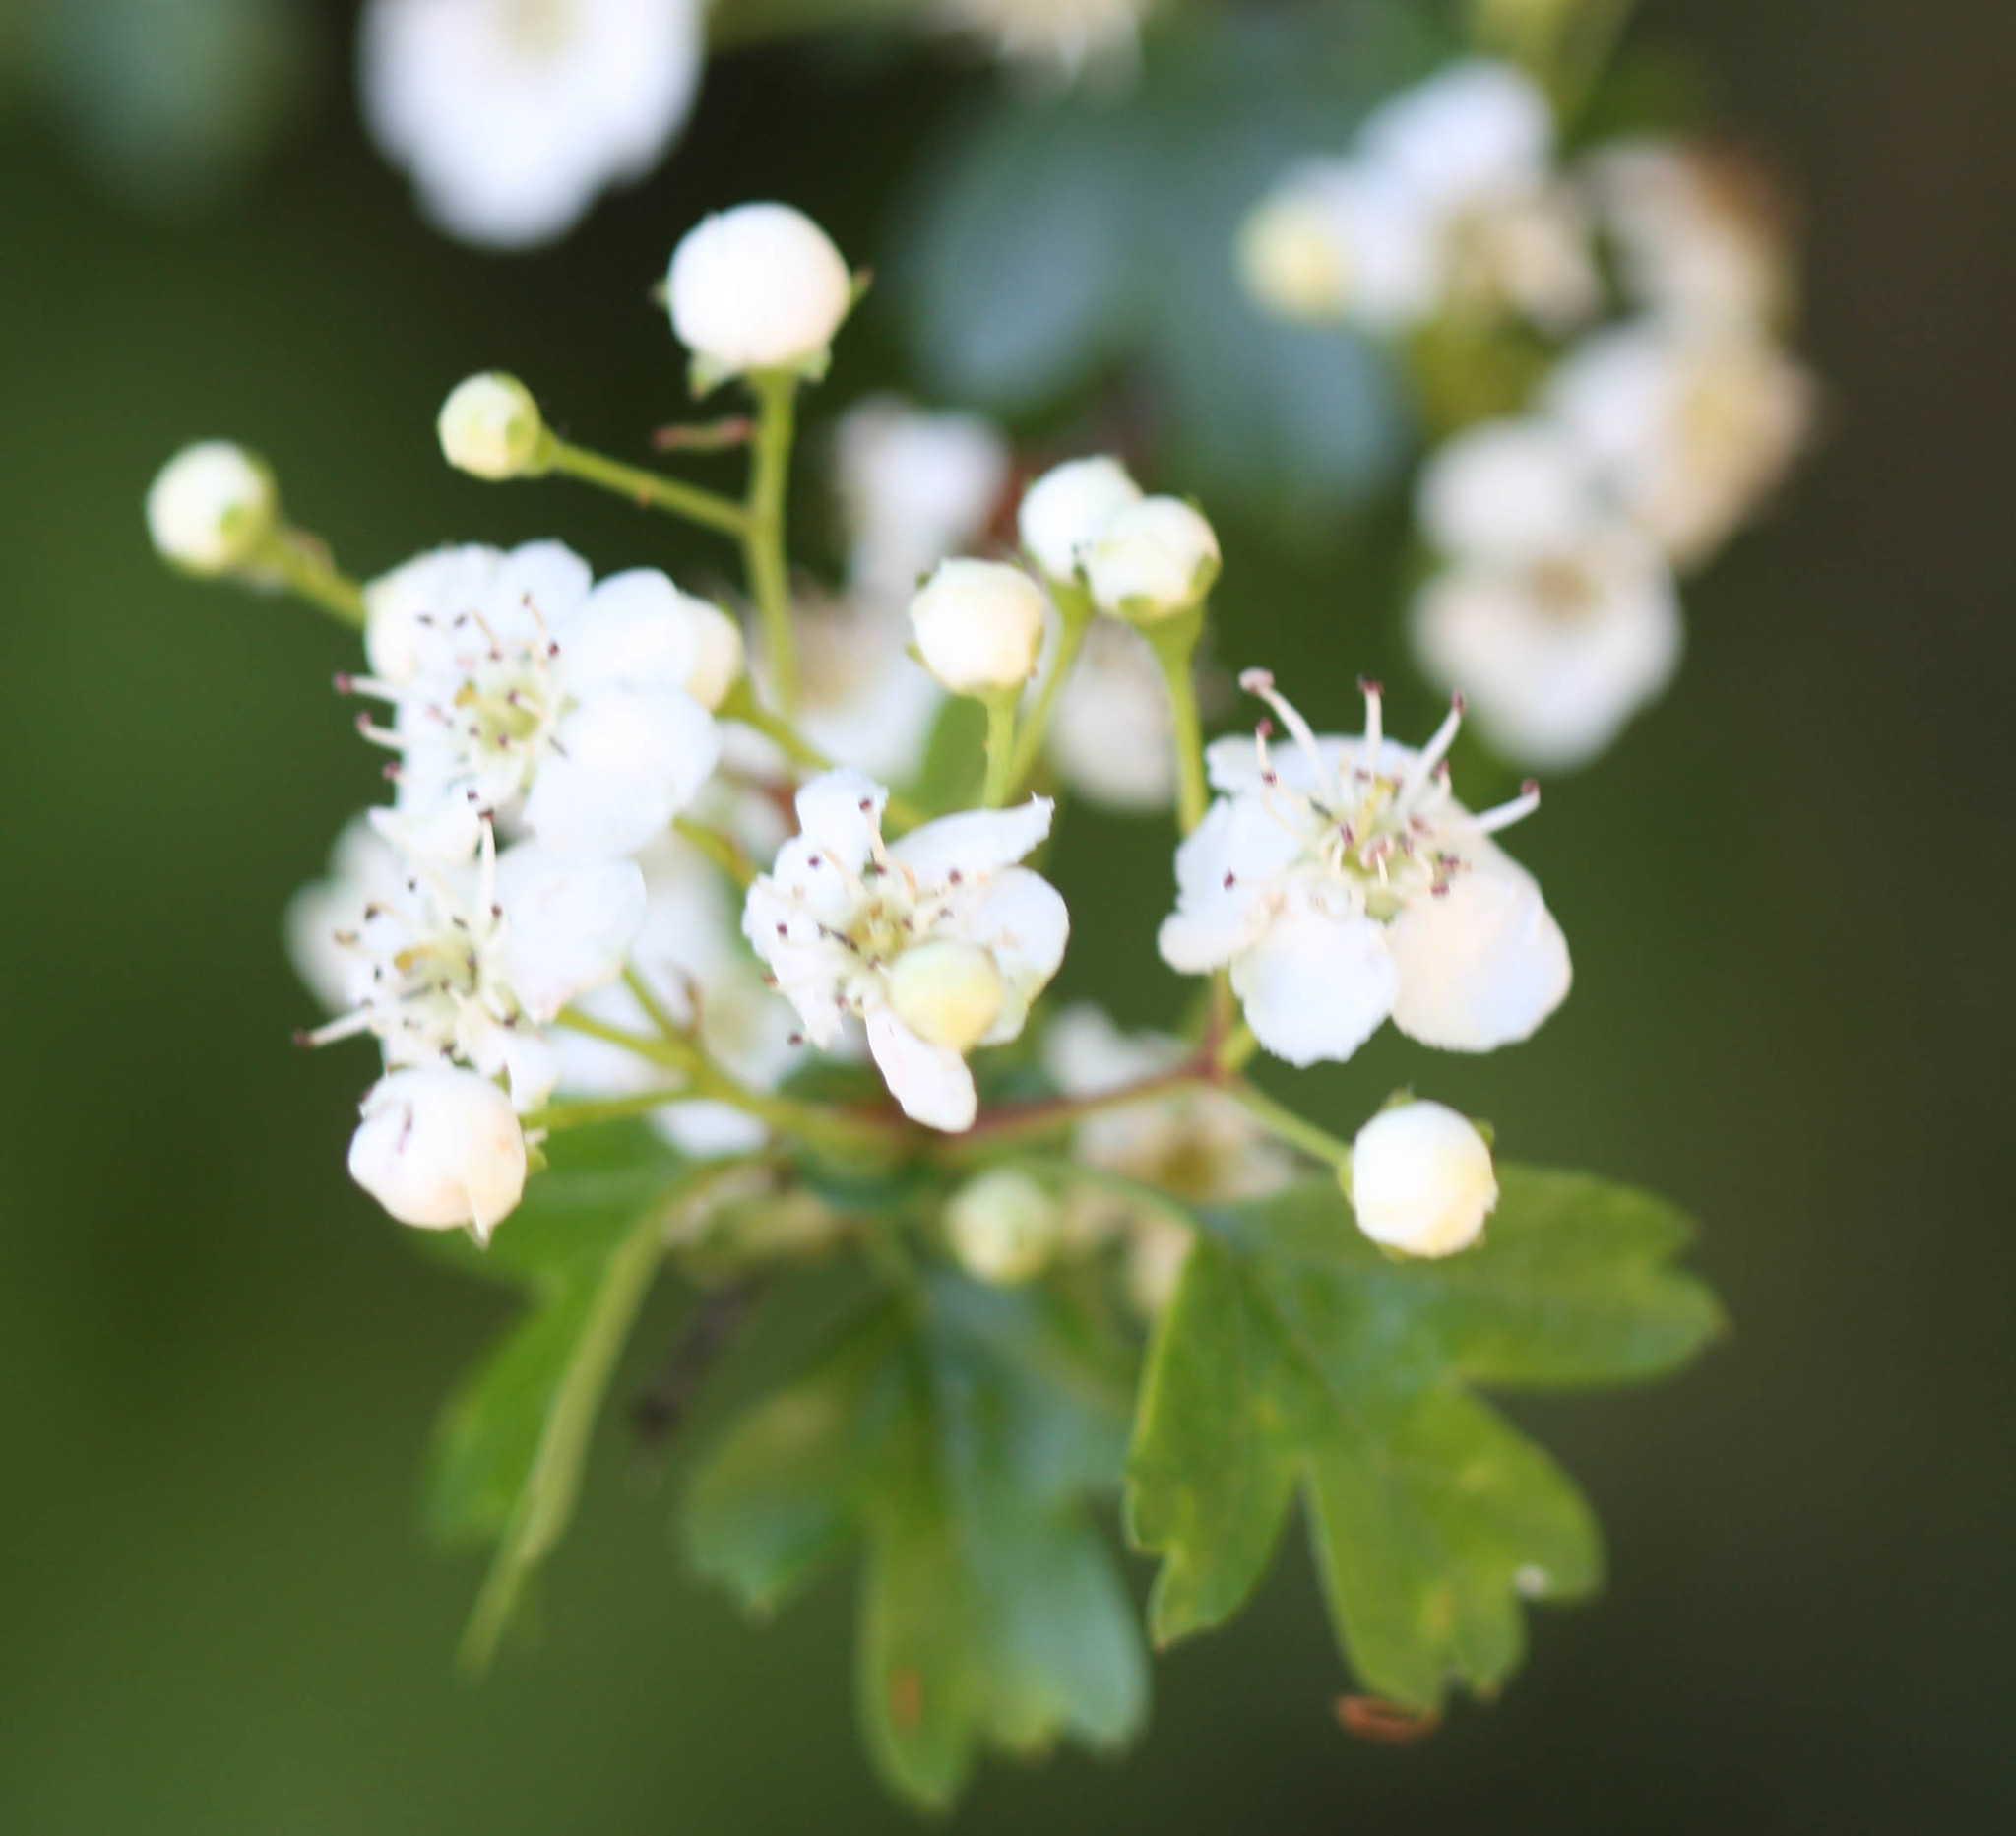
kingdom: Plantae
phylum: Tracheophyta
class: Magnoliopsida
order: Rosales
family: Rosaceae
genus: Crataegus
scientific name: Crataegus monogyna
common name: Hawthorn
